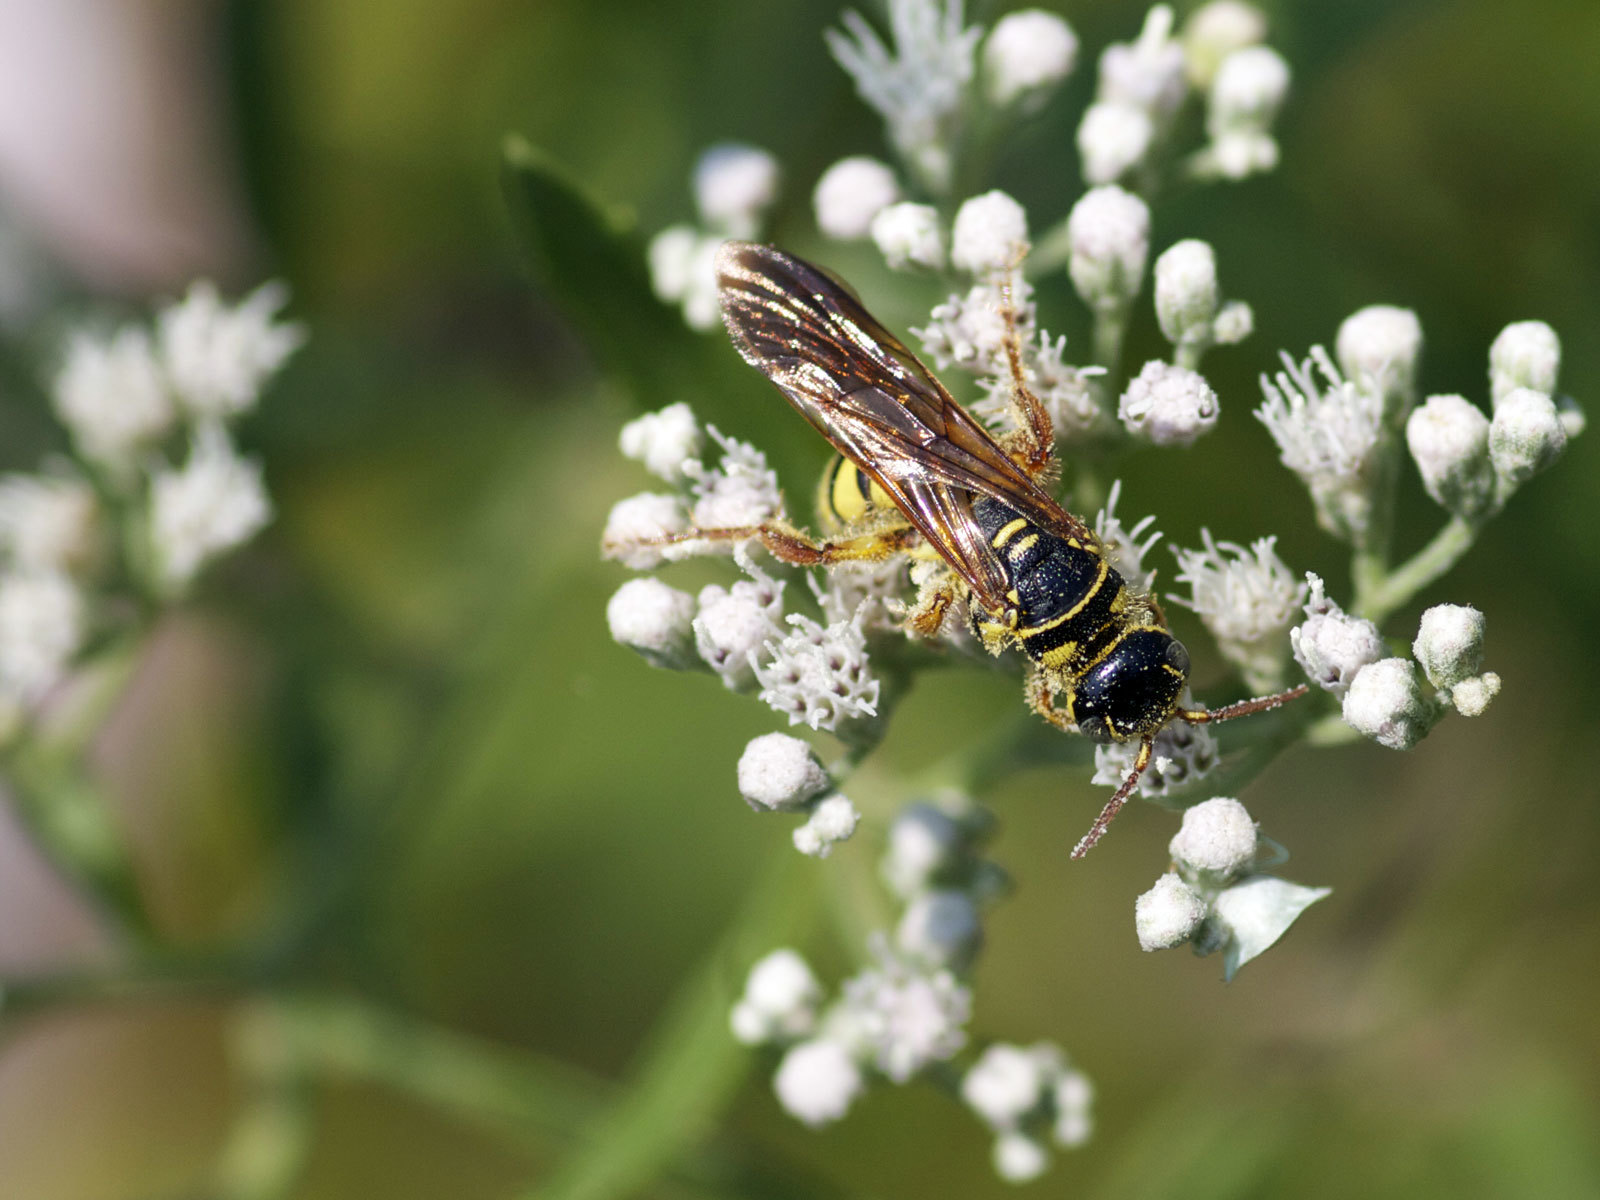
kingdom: Animalia
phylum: Arthropoda
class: Insecta
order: Hymenoptera
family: Tiphiidae
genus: Myzinum
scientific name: Myzinum quinquecinctum
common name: Five-banded thynnid wasp
